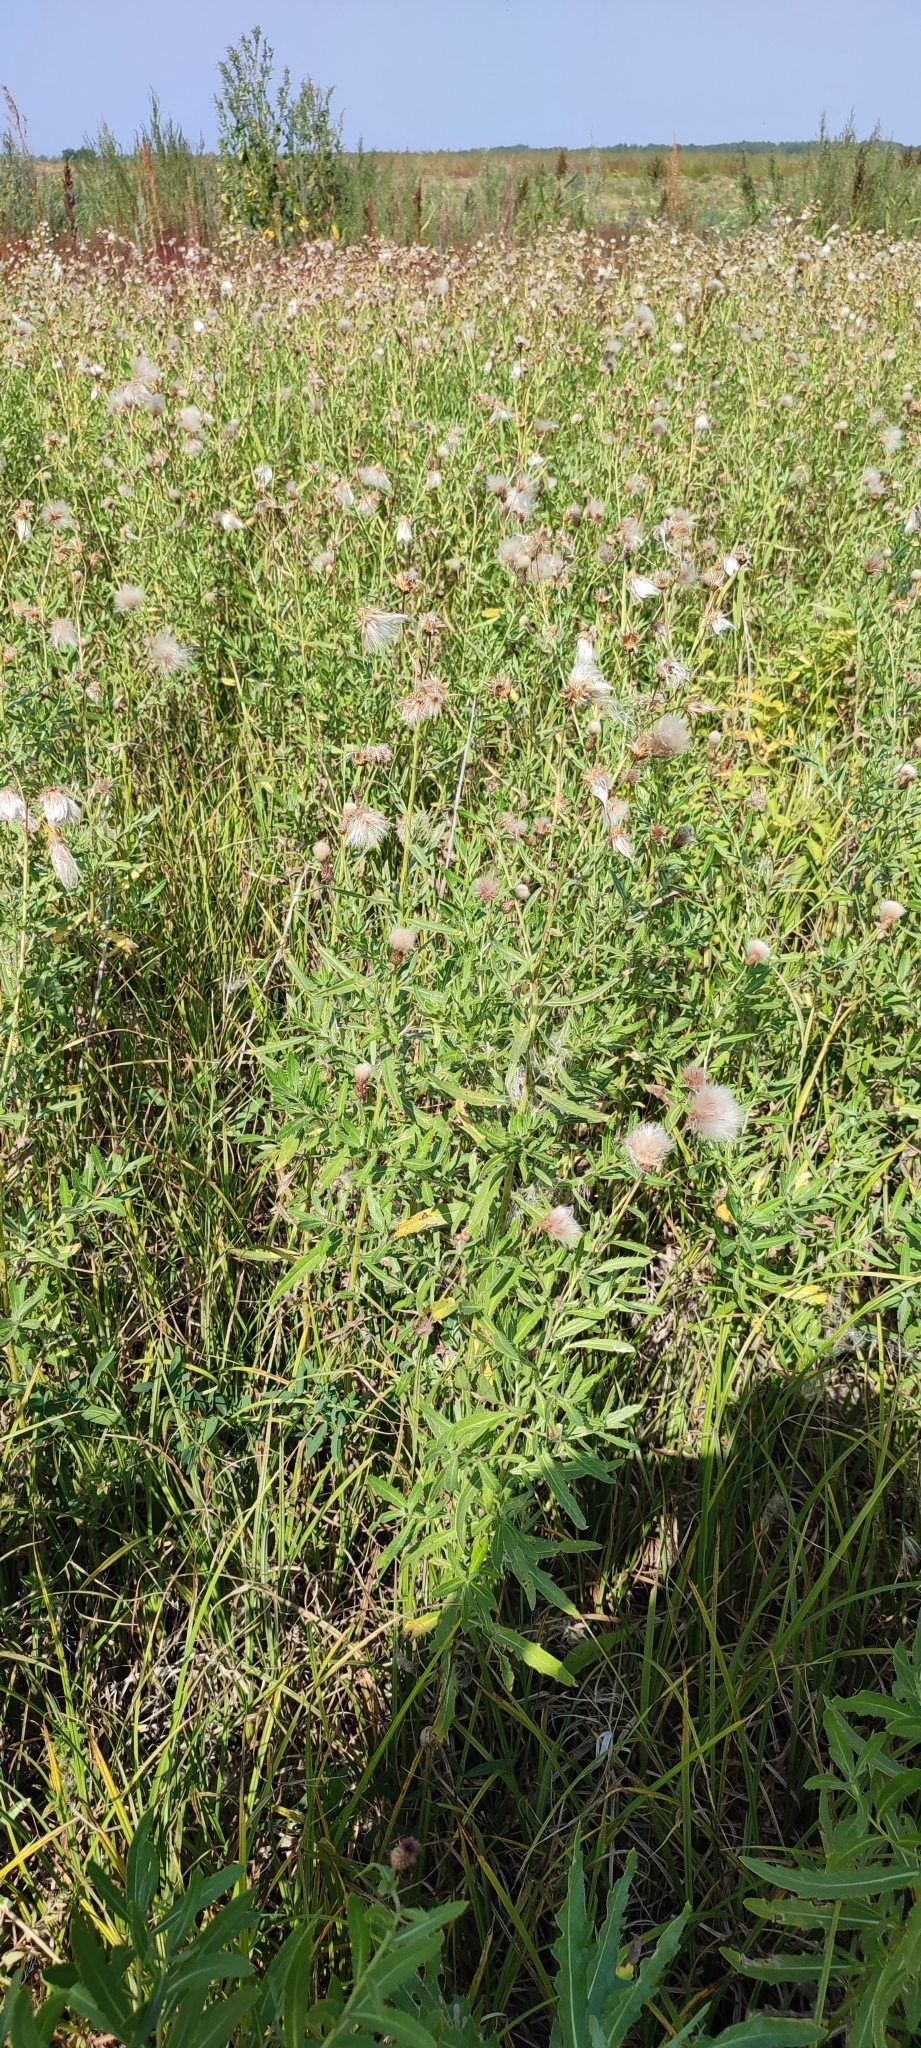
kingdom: Plantae
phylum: Tracheophyta
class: Magnoliopsida
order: Asterales
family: Asteraceae
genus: Cirsium
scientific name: Cirsium arvense
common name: Creeping thistle
